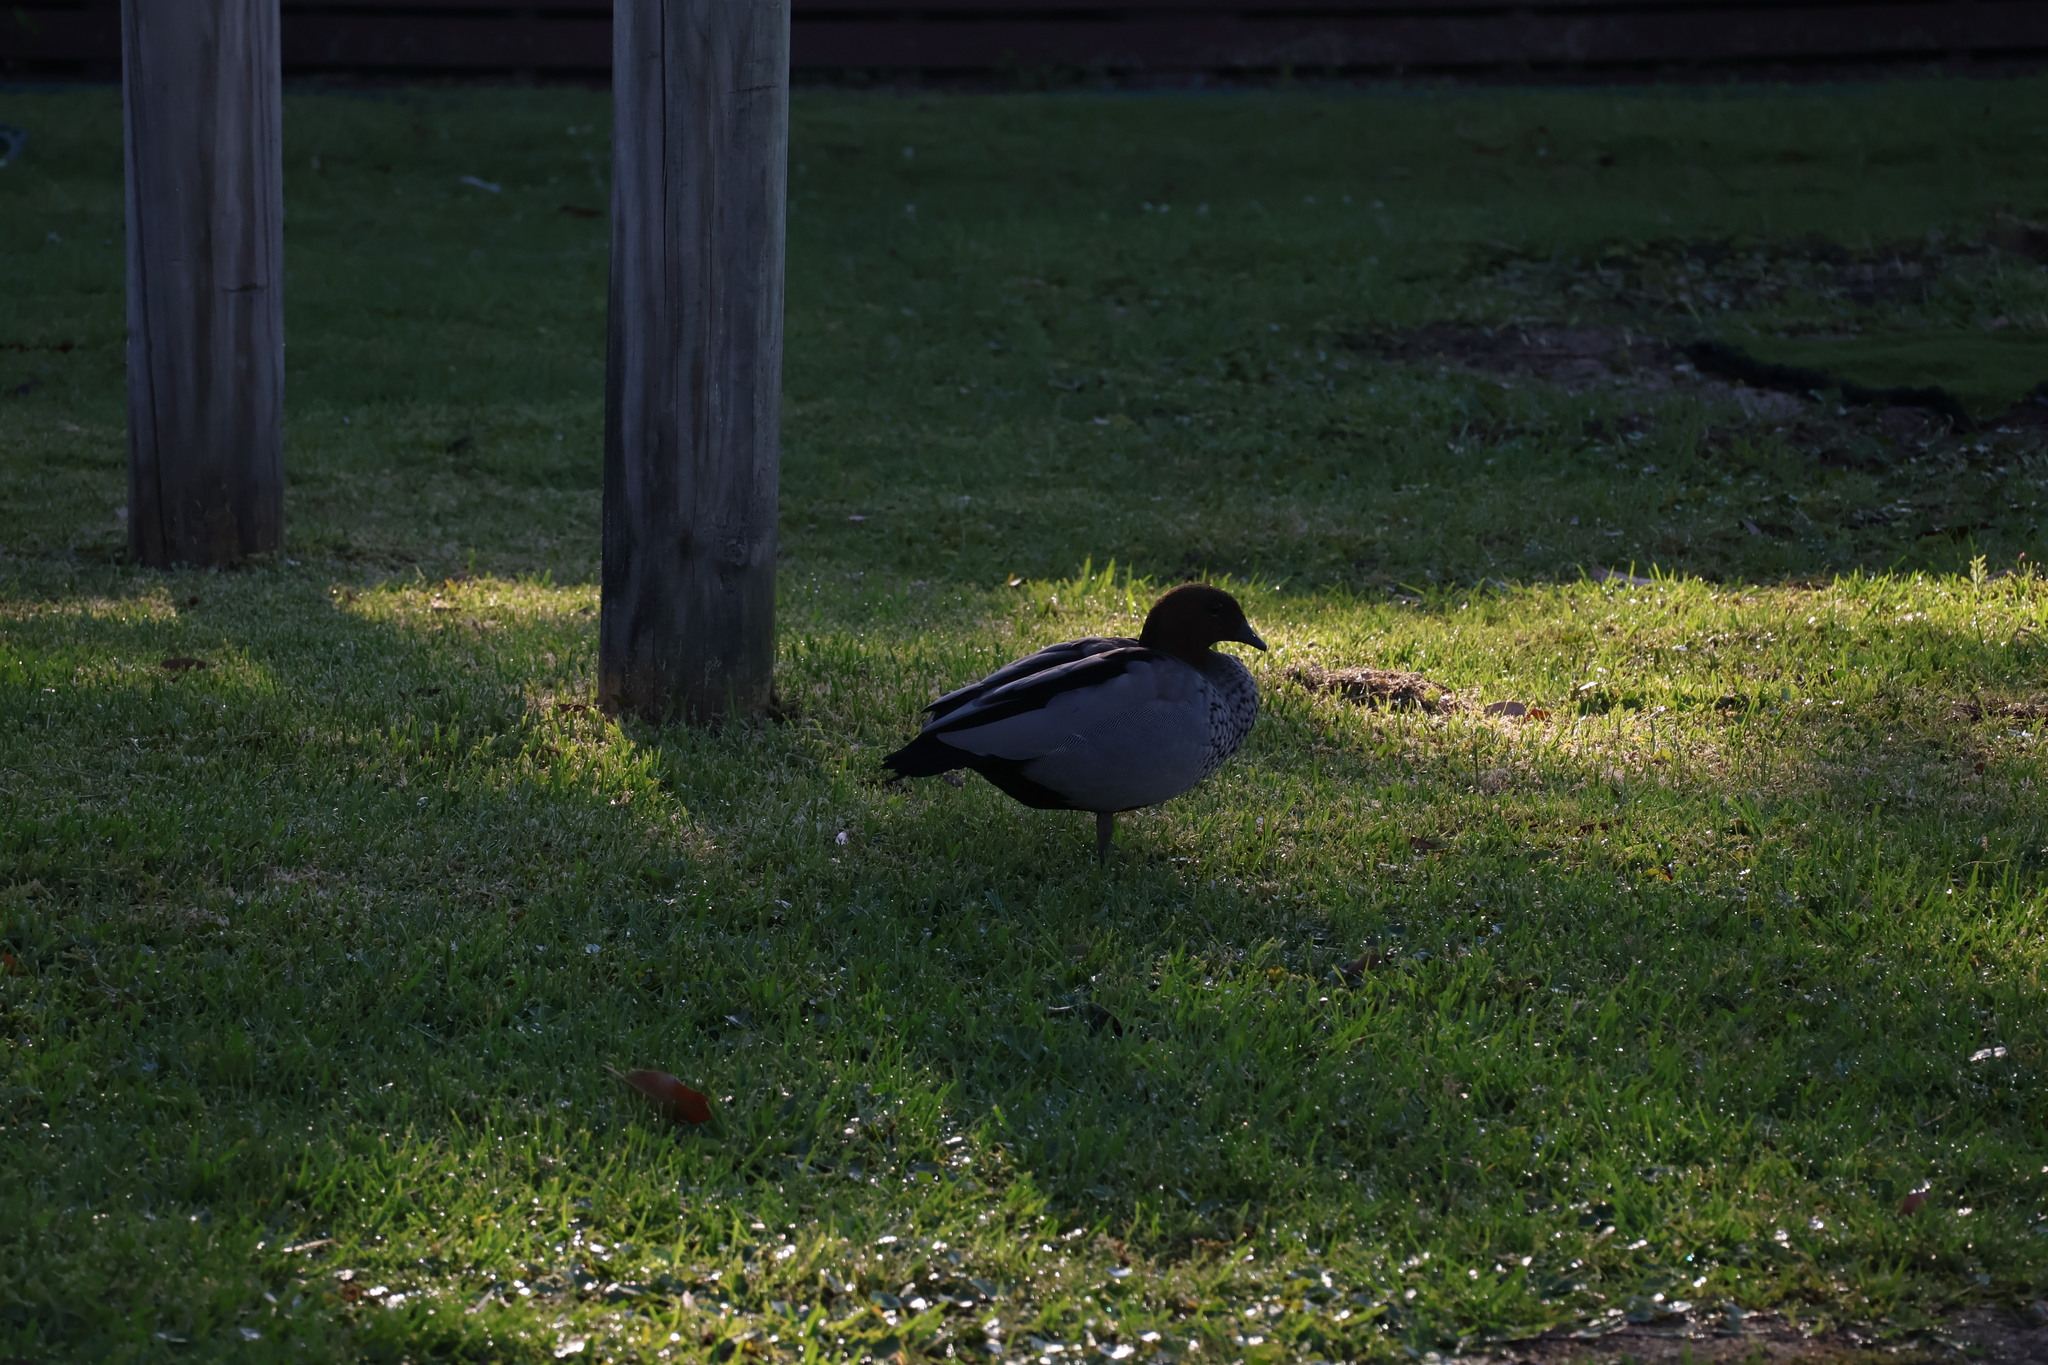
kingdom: Animalia
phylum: Chordata
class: Aves
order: Anseriformes
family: Anatidae
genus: Chenonetta
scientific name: Chenonetta jubata
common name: Maned duck
